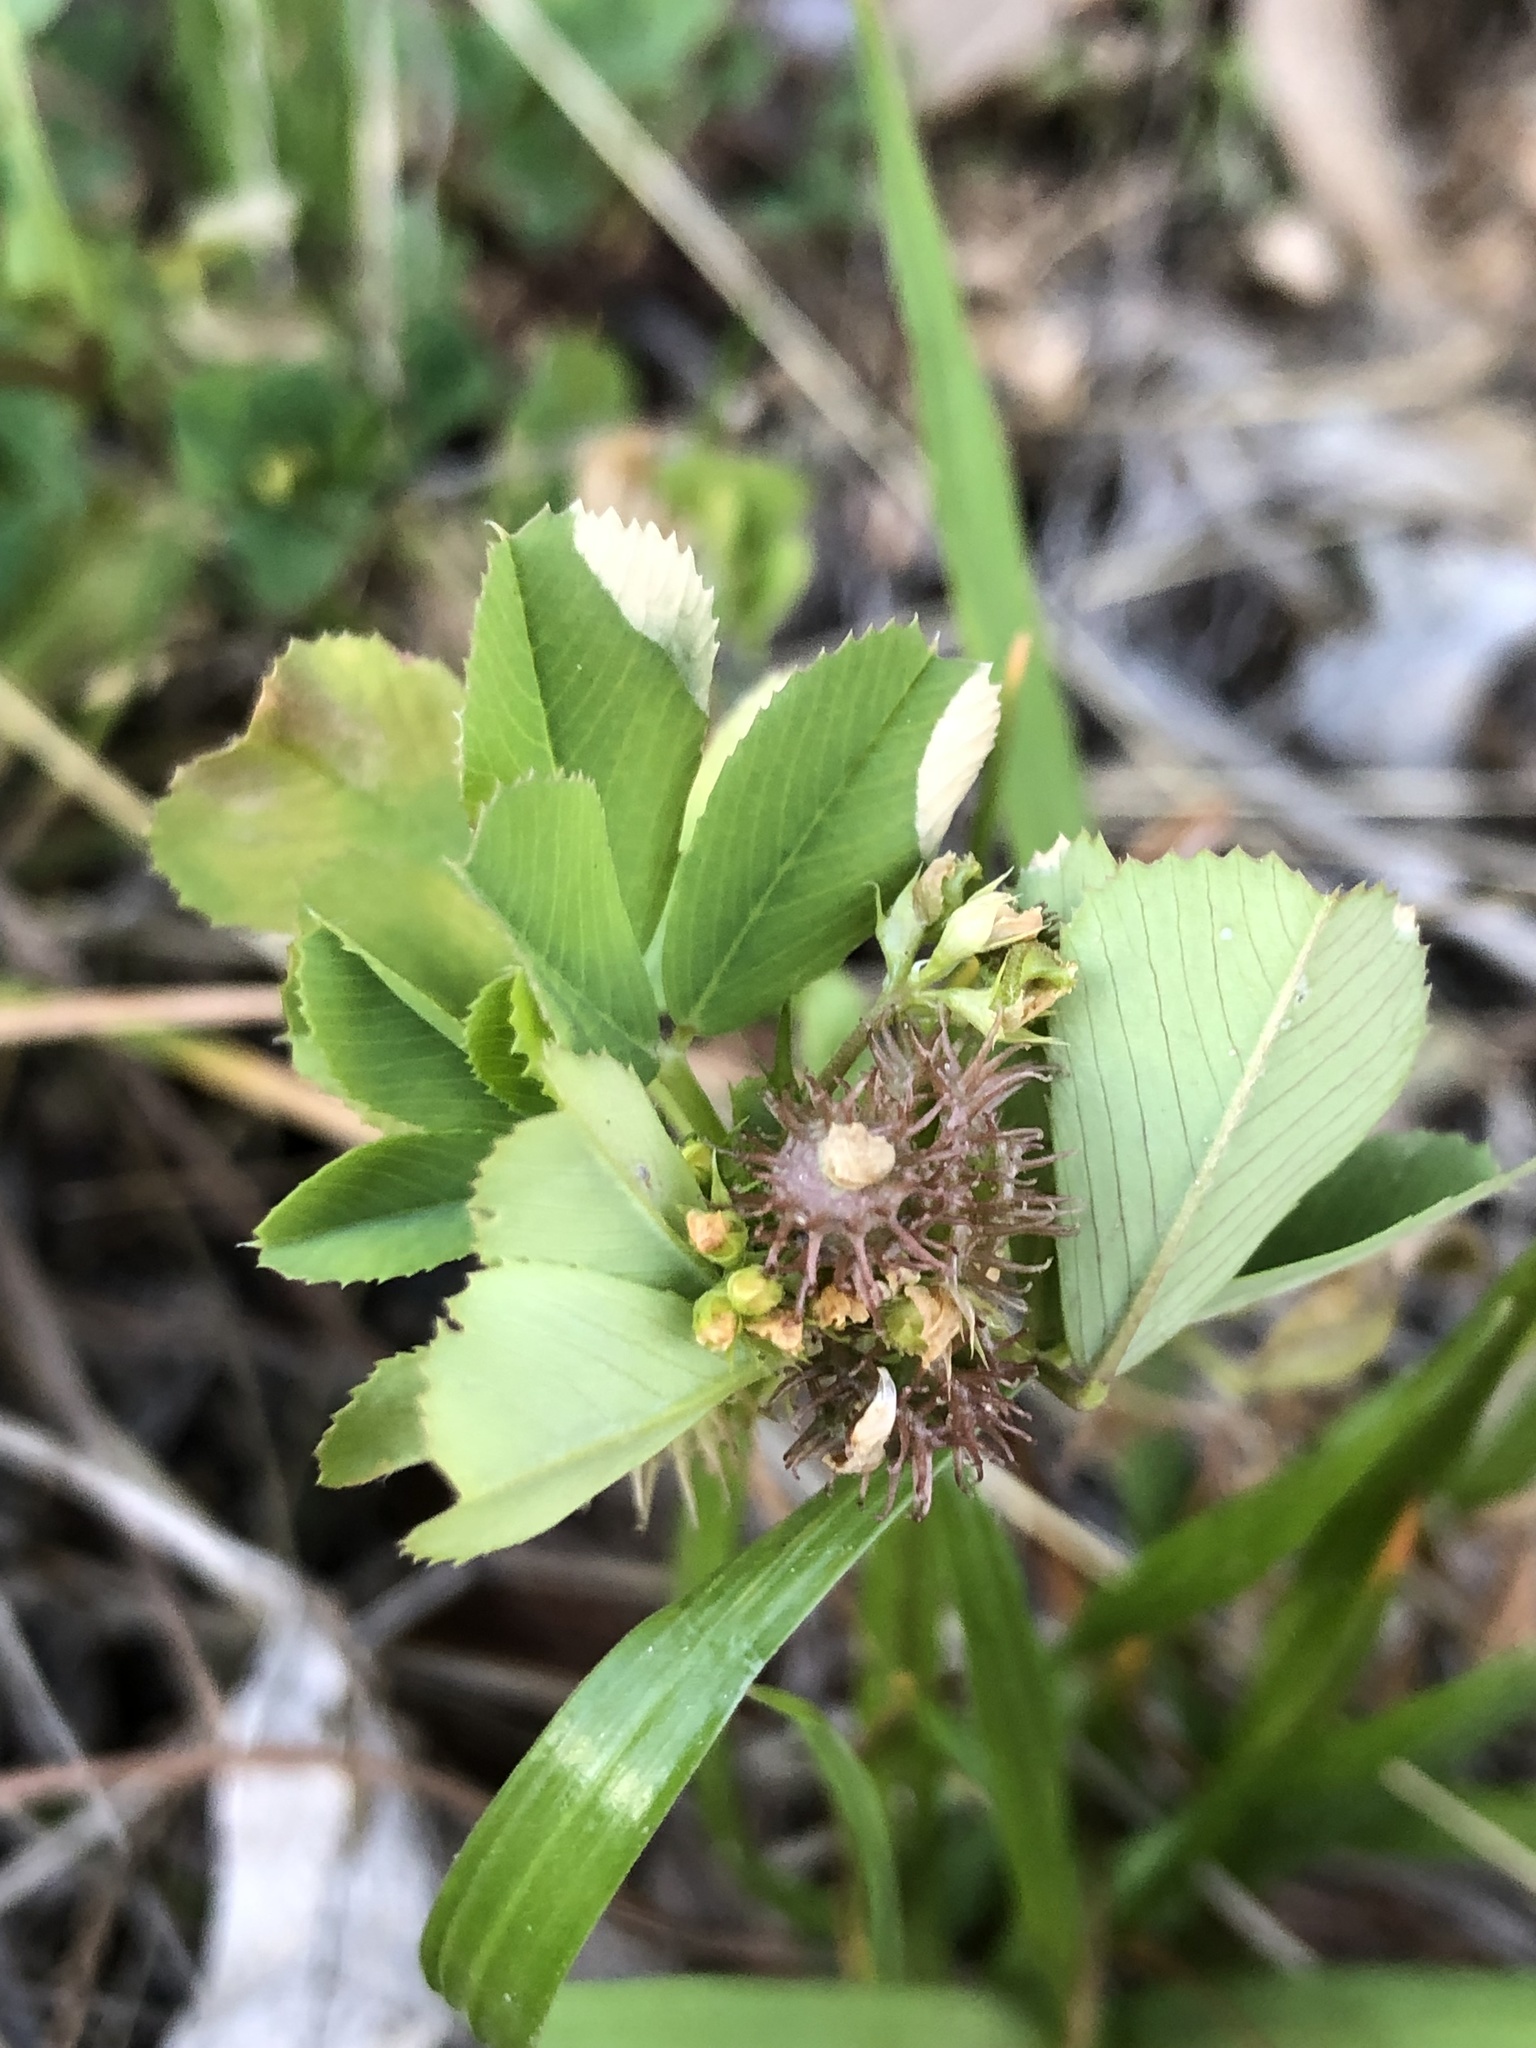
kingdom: Plantae
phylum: Tracheophyta
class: Magnoliopsida
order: Fabales
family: Fabaceae
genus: Medicago
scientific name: Medicago polymorpha
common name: Burclover
